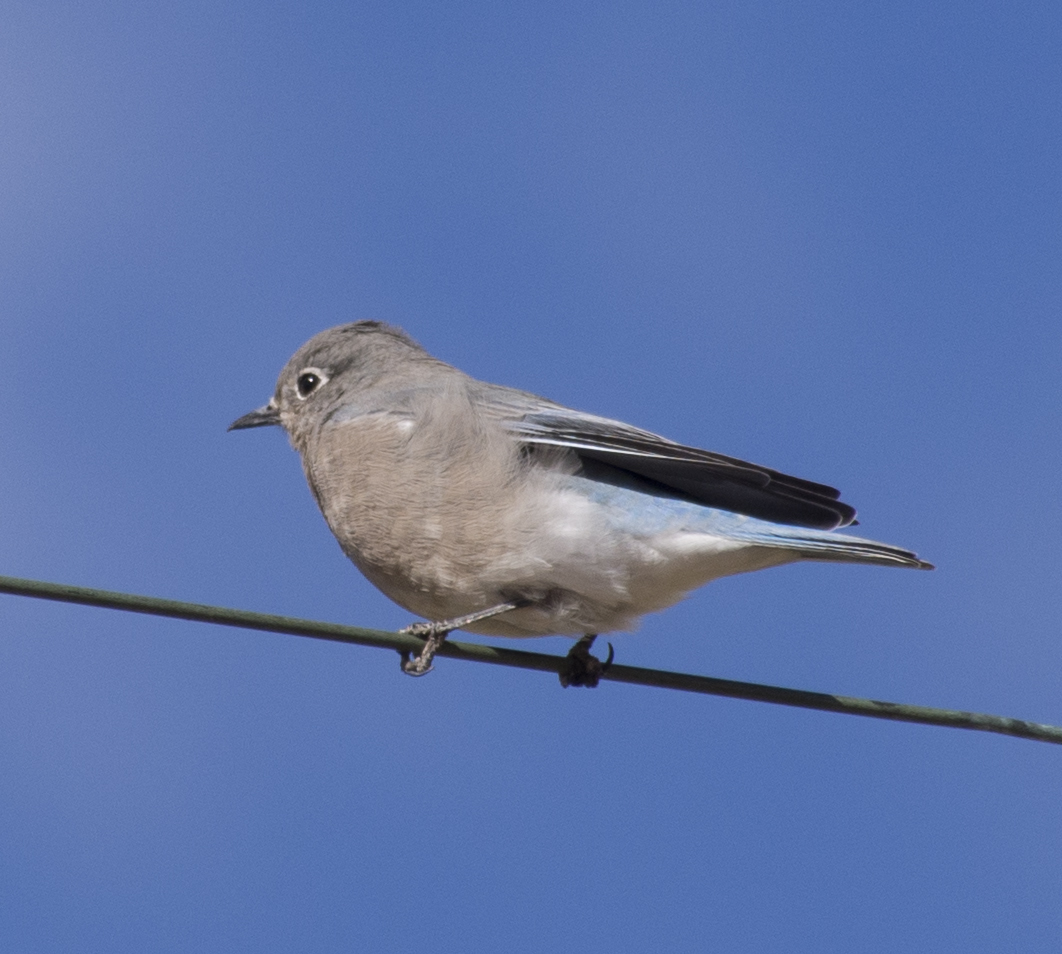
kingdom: Animalia
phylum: Chordata
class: Aves
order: Passeriformes
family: Turdidae
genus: Sialia
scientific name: Sialia currucoides
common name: Mountain bluebird
